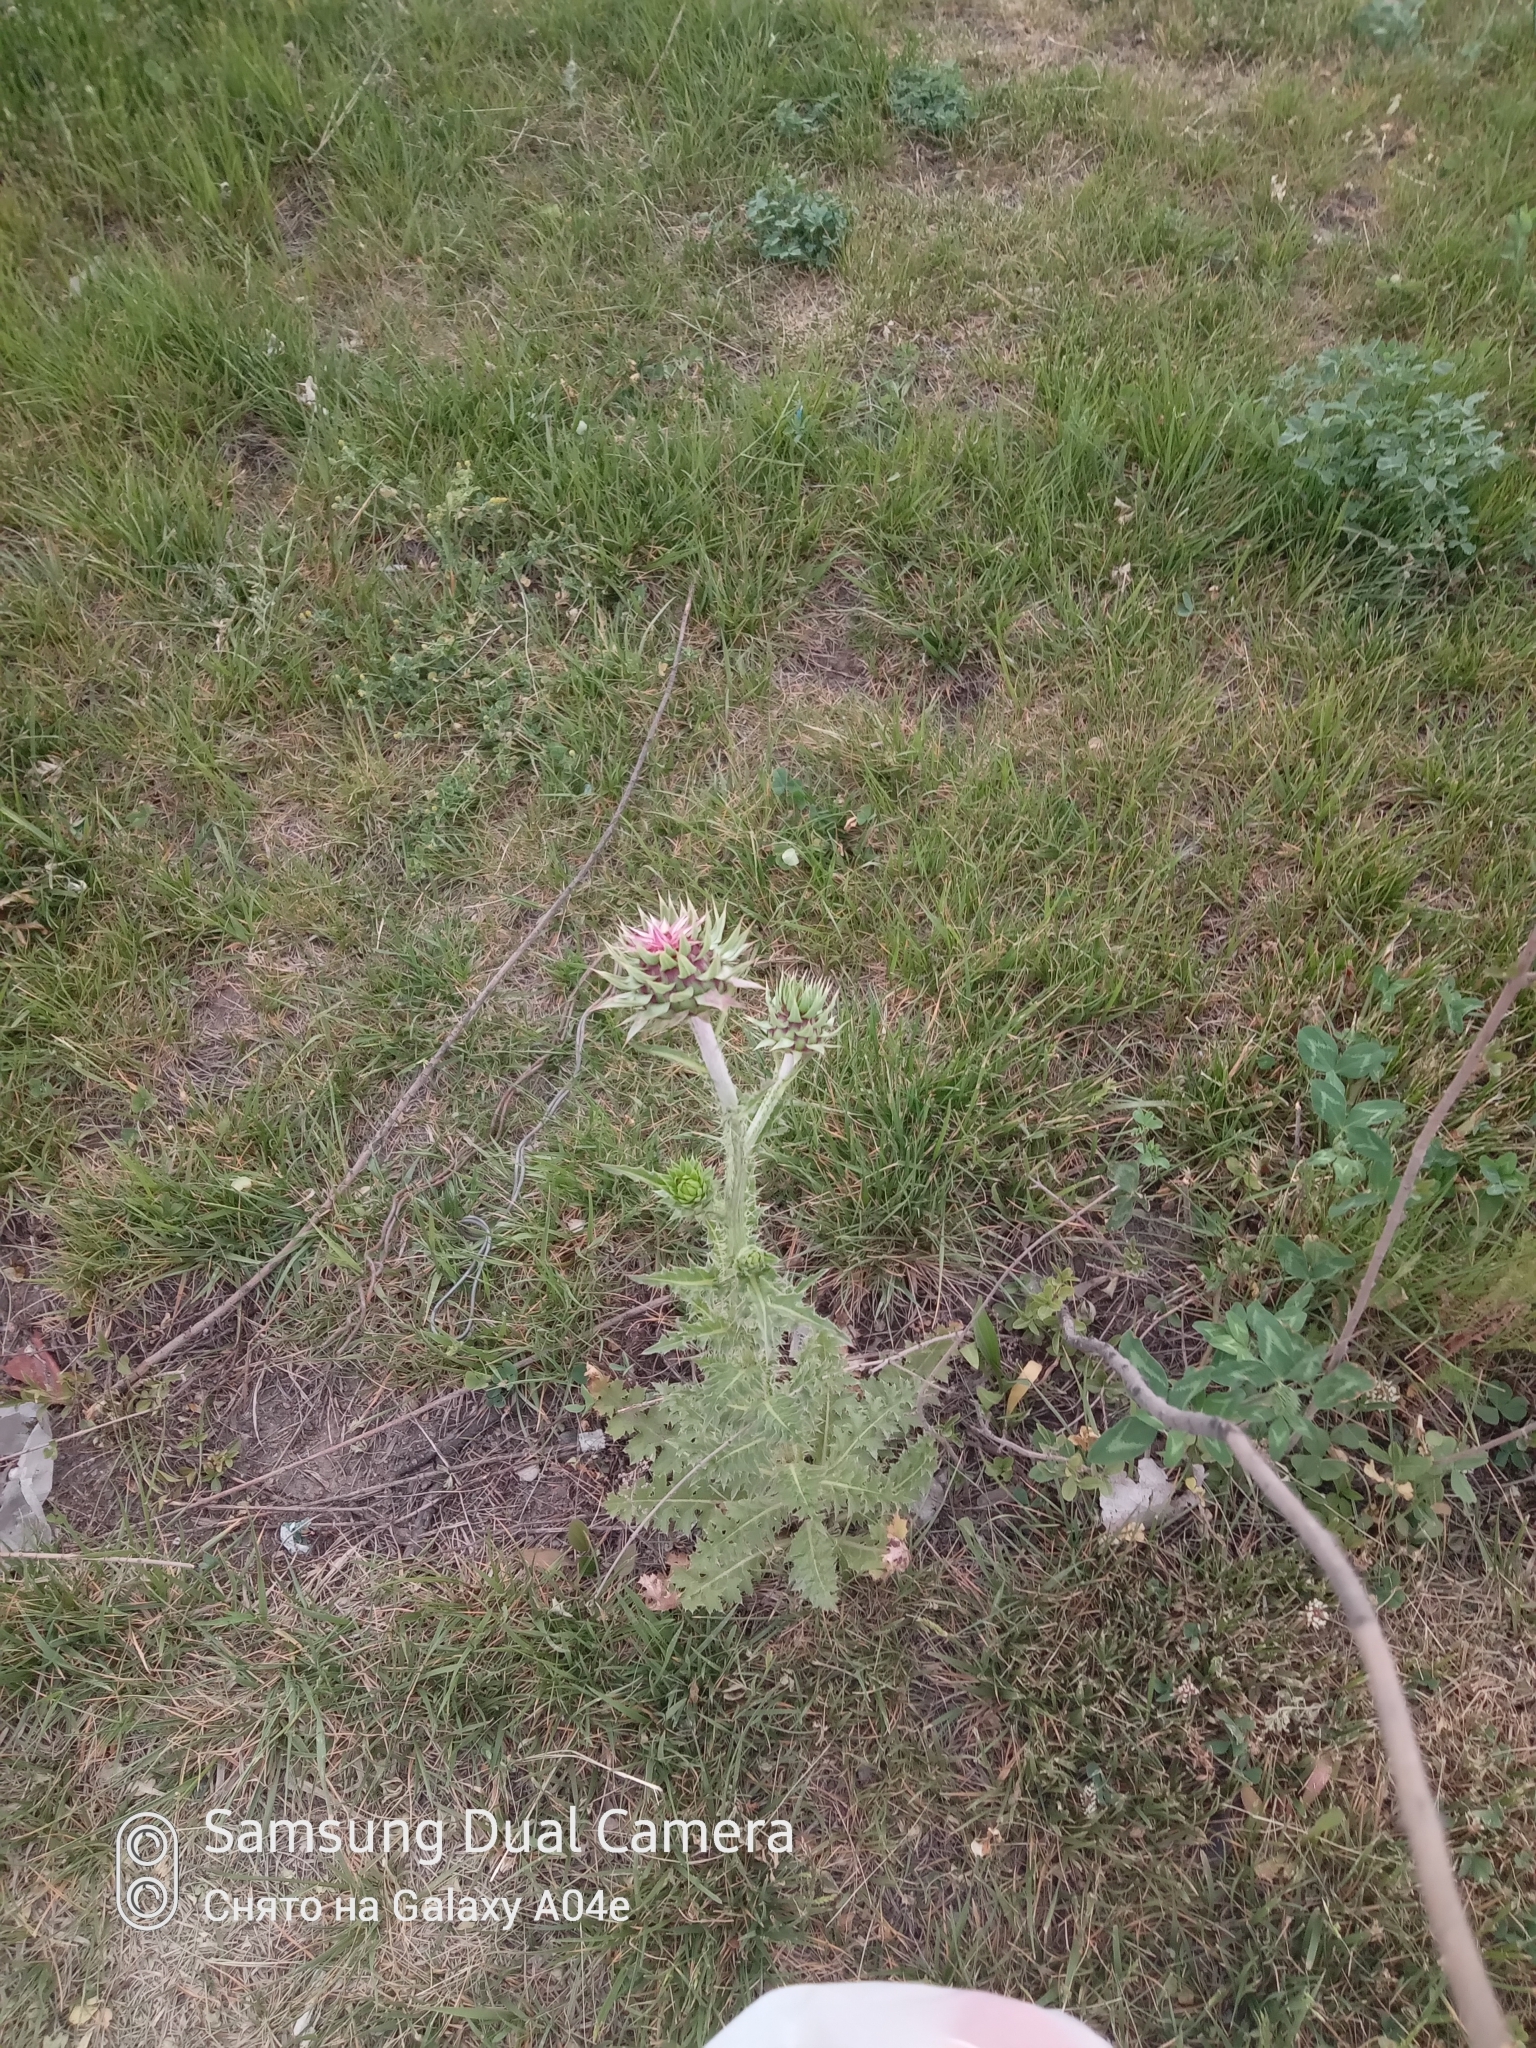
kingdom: Plantae
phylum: Tracheophyta
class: Magnoliopsida
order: Asterales
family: Asteraceae
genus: Carduus
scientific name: Carduus nutans
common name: Musk thistle
